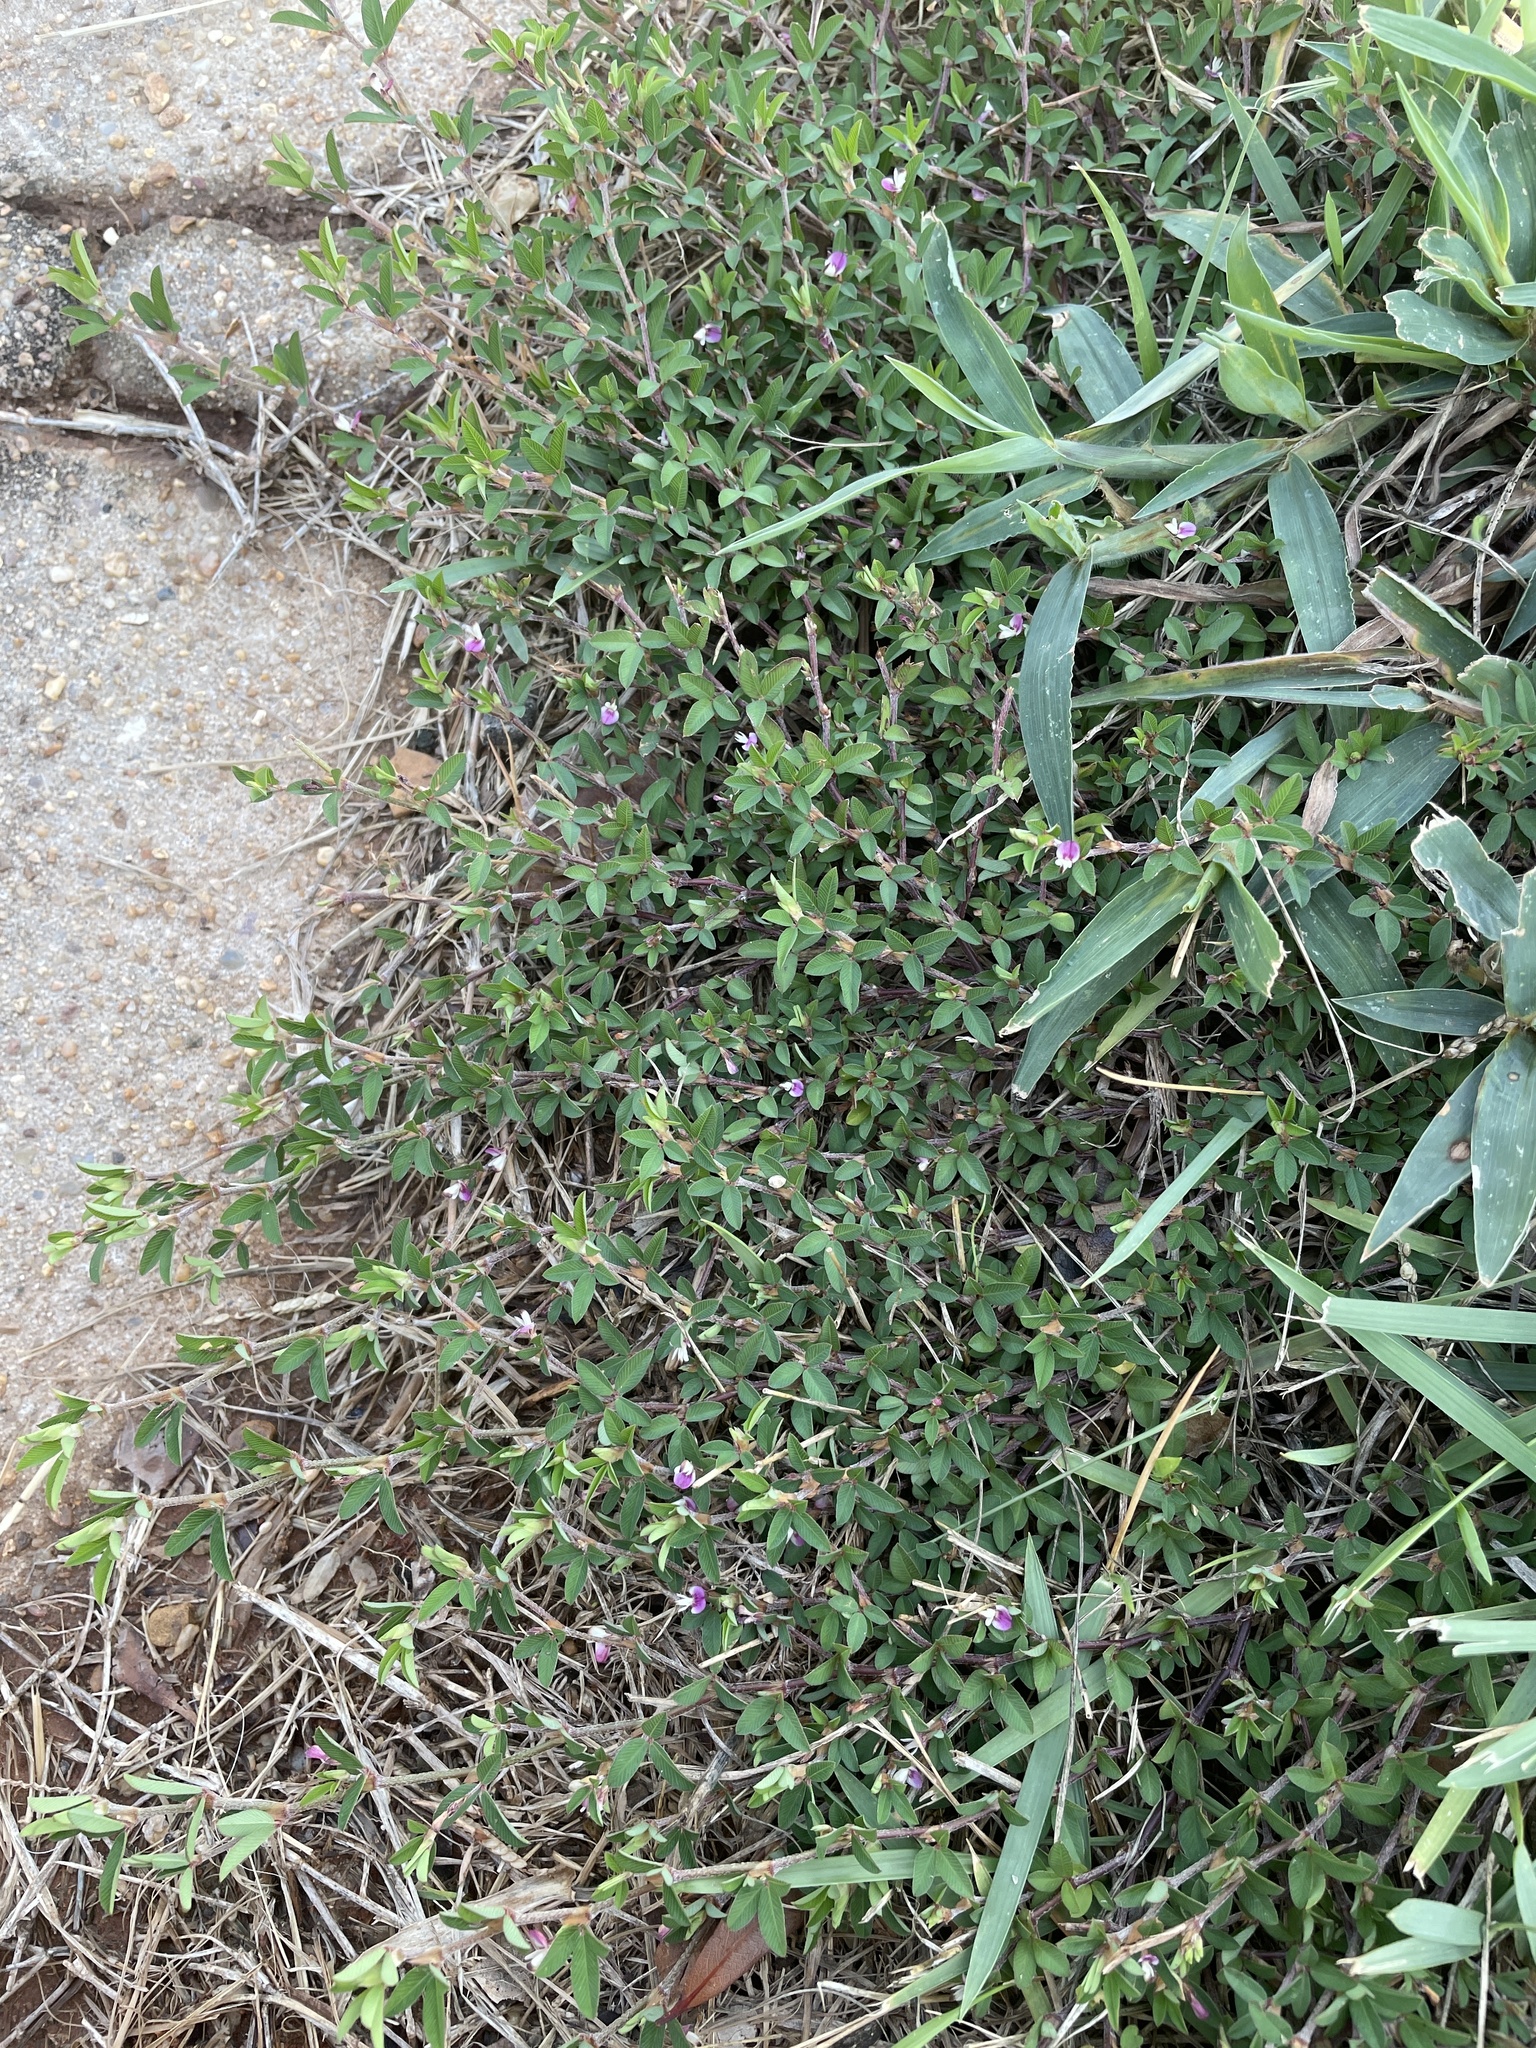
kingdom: Plantae
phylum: Tracheophyta
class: Magnoliopsida
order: Fabales
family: Fabaceae
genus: Kummerowia
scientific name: Kummerowia striata
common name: Japanese clover
